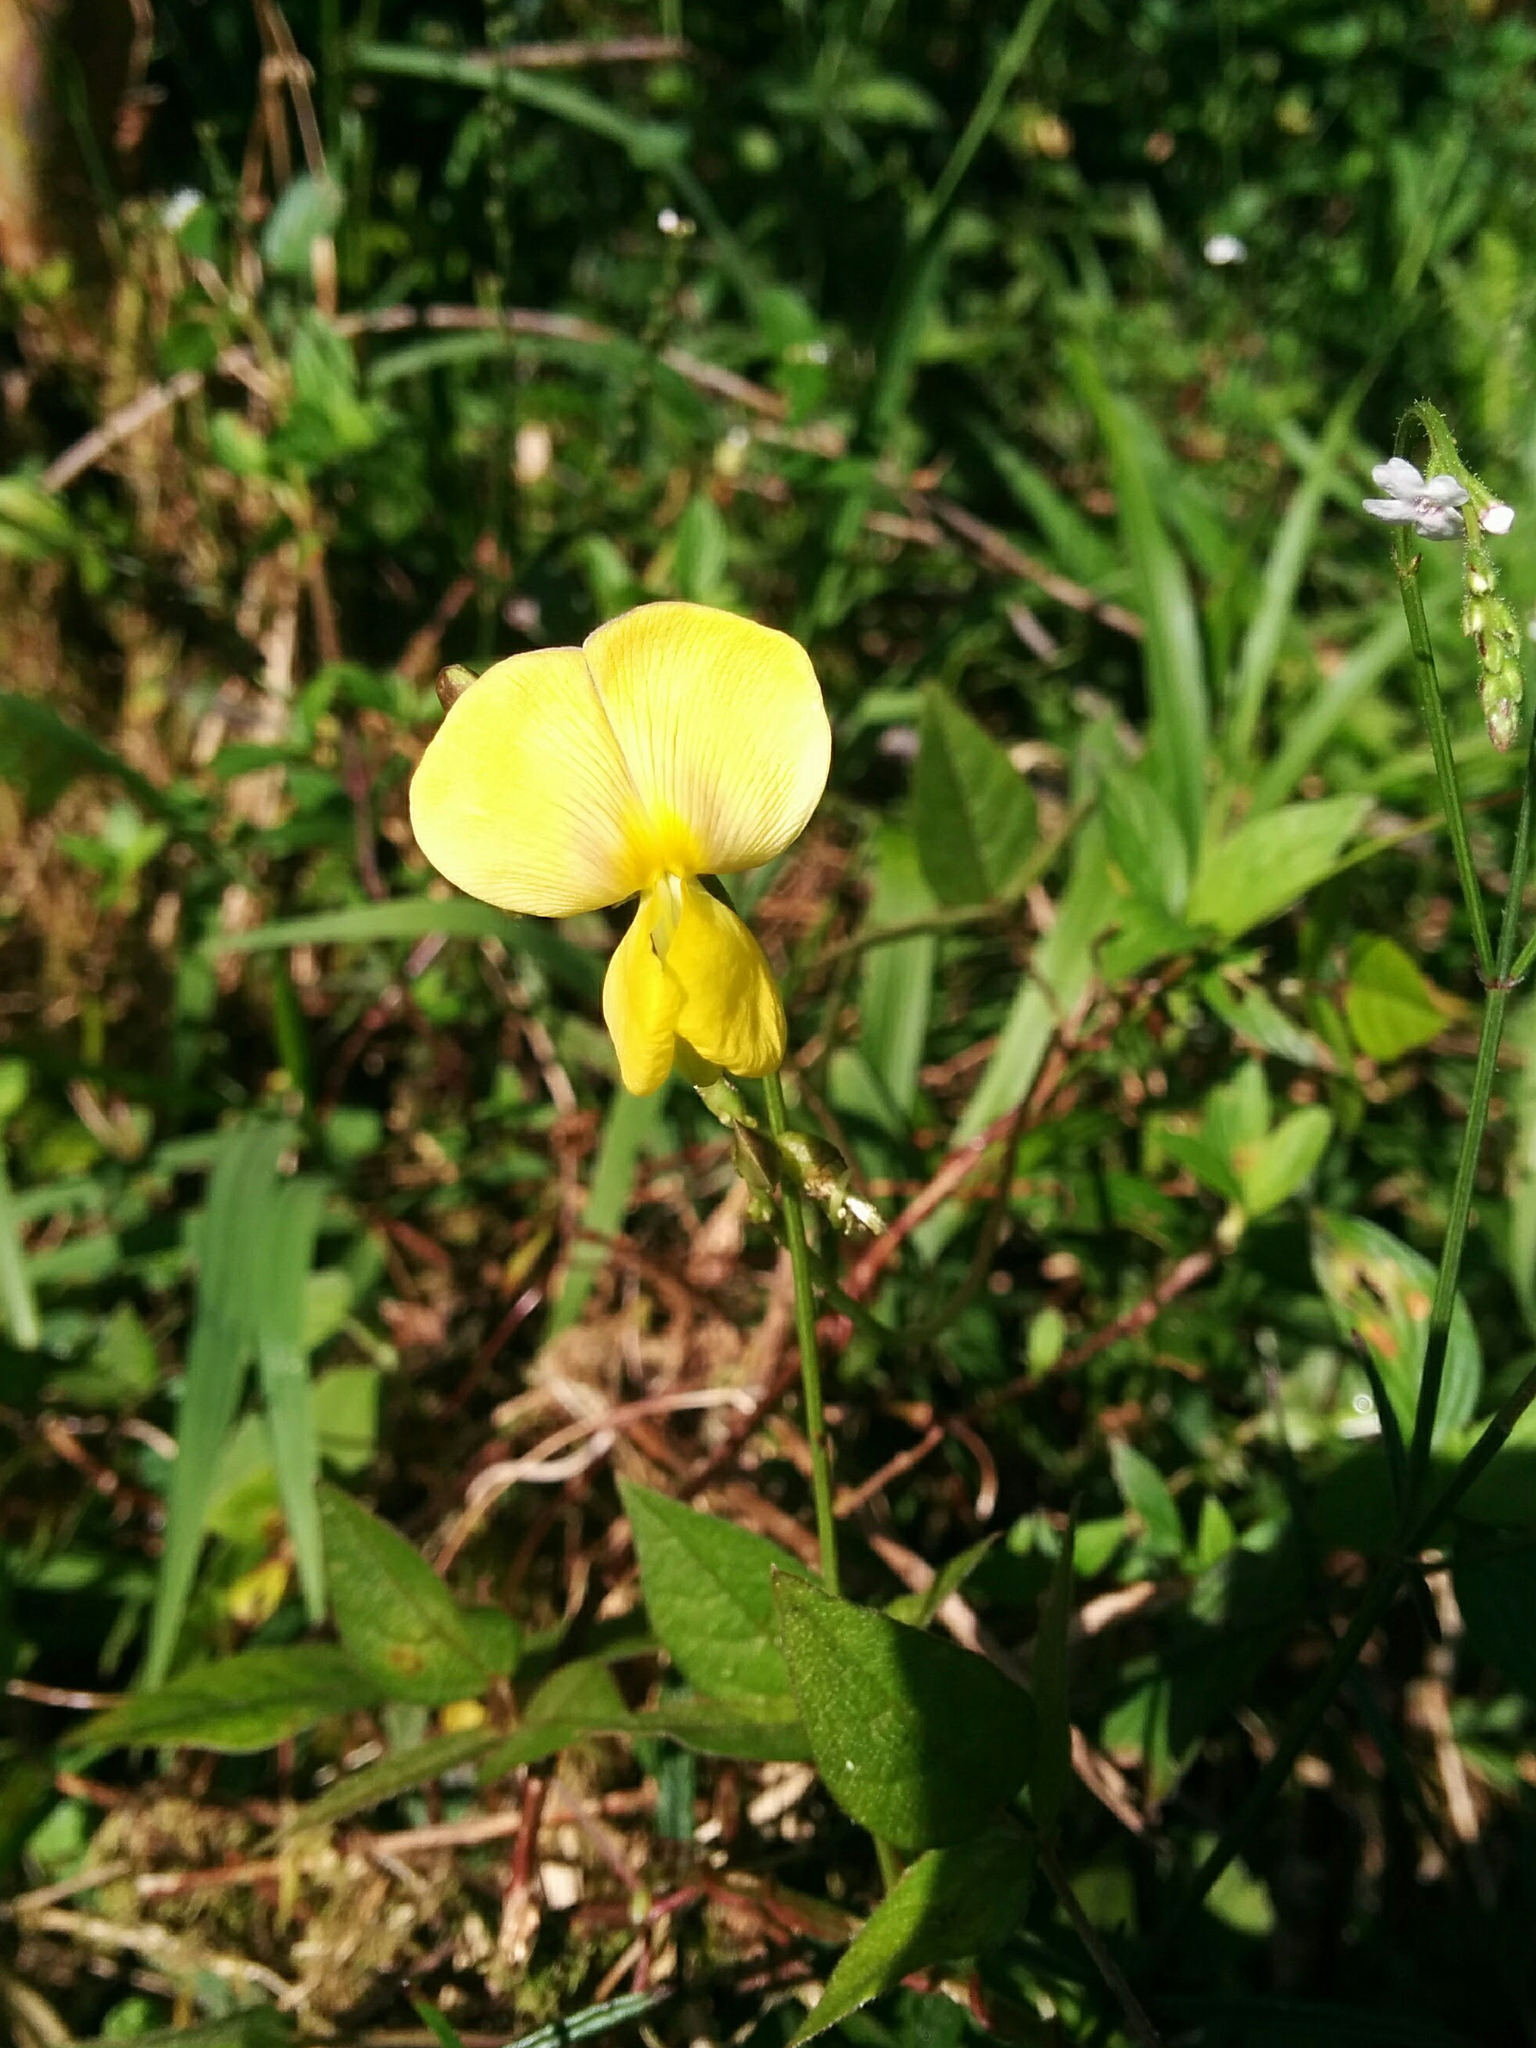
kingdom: Plantae
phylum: Tracheophyta
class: Magnoliopsida
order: Fabales
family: Fabaceae
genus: Vigna
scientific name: Vigna luteola
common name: Hairypod cowpea
